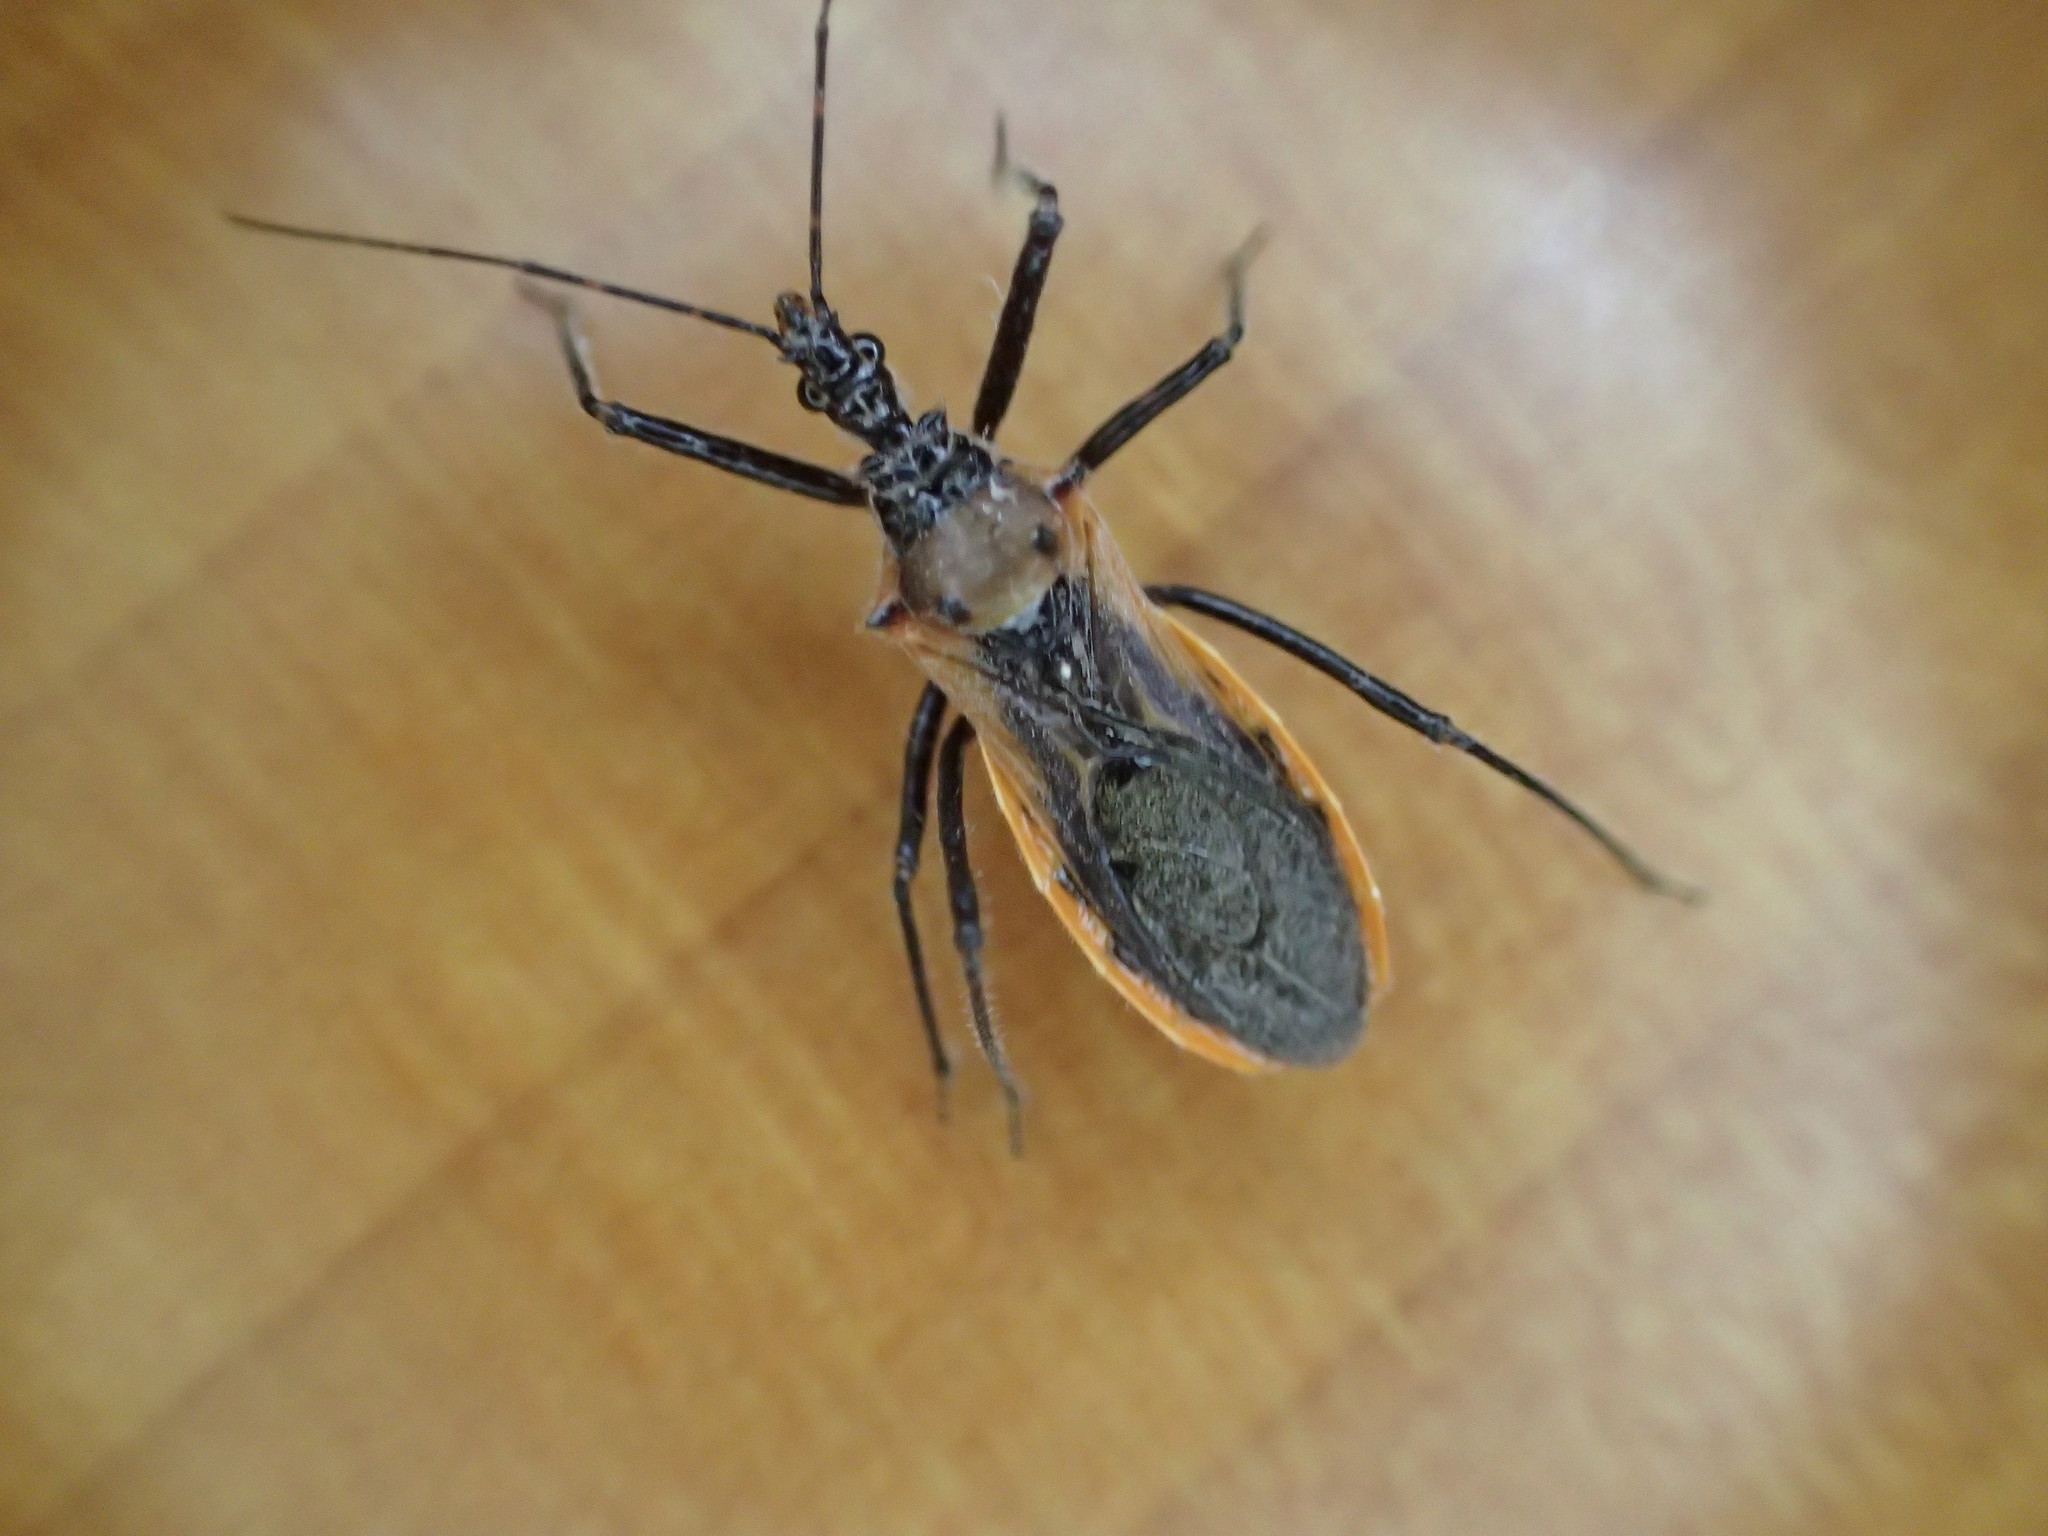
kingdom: Animalia
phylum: Arthropoda
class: Insecta
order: Hemiptera
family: Reduviidae
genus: Gminatus
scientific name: Gminatus australis
